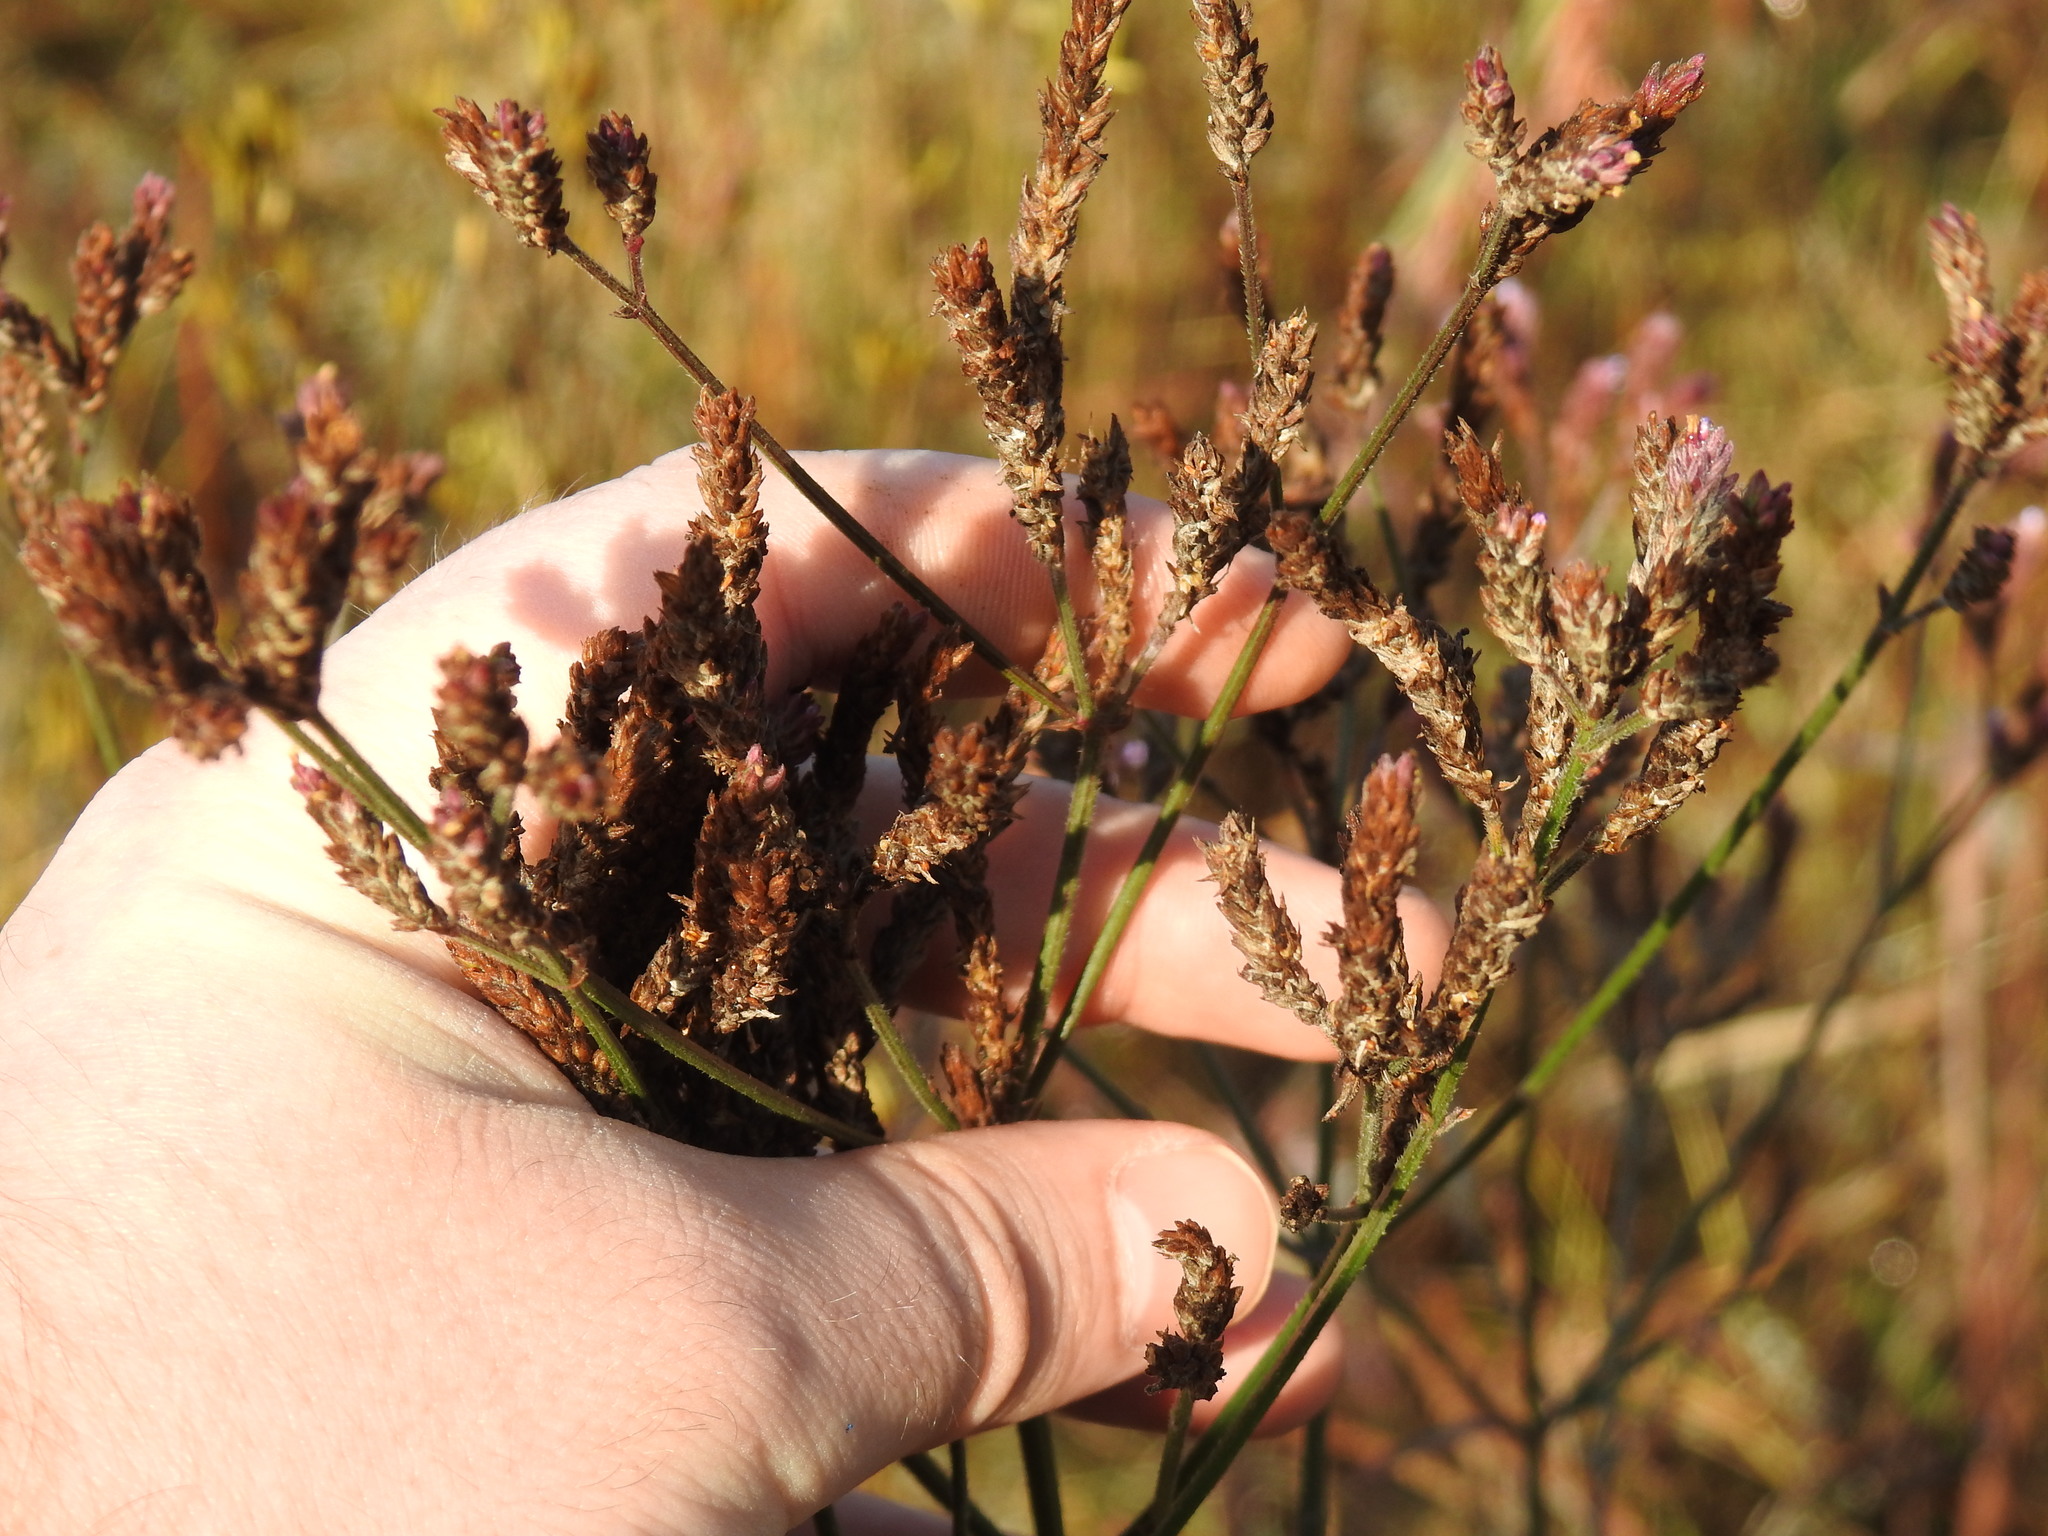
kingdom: Plantae
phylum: Tracheophyta
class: Magnoliopsida
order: Lamiales
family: Verbenaceae
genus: Verbena
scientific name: Verbena brasiliensis
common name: Brazilian vervain
